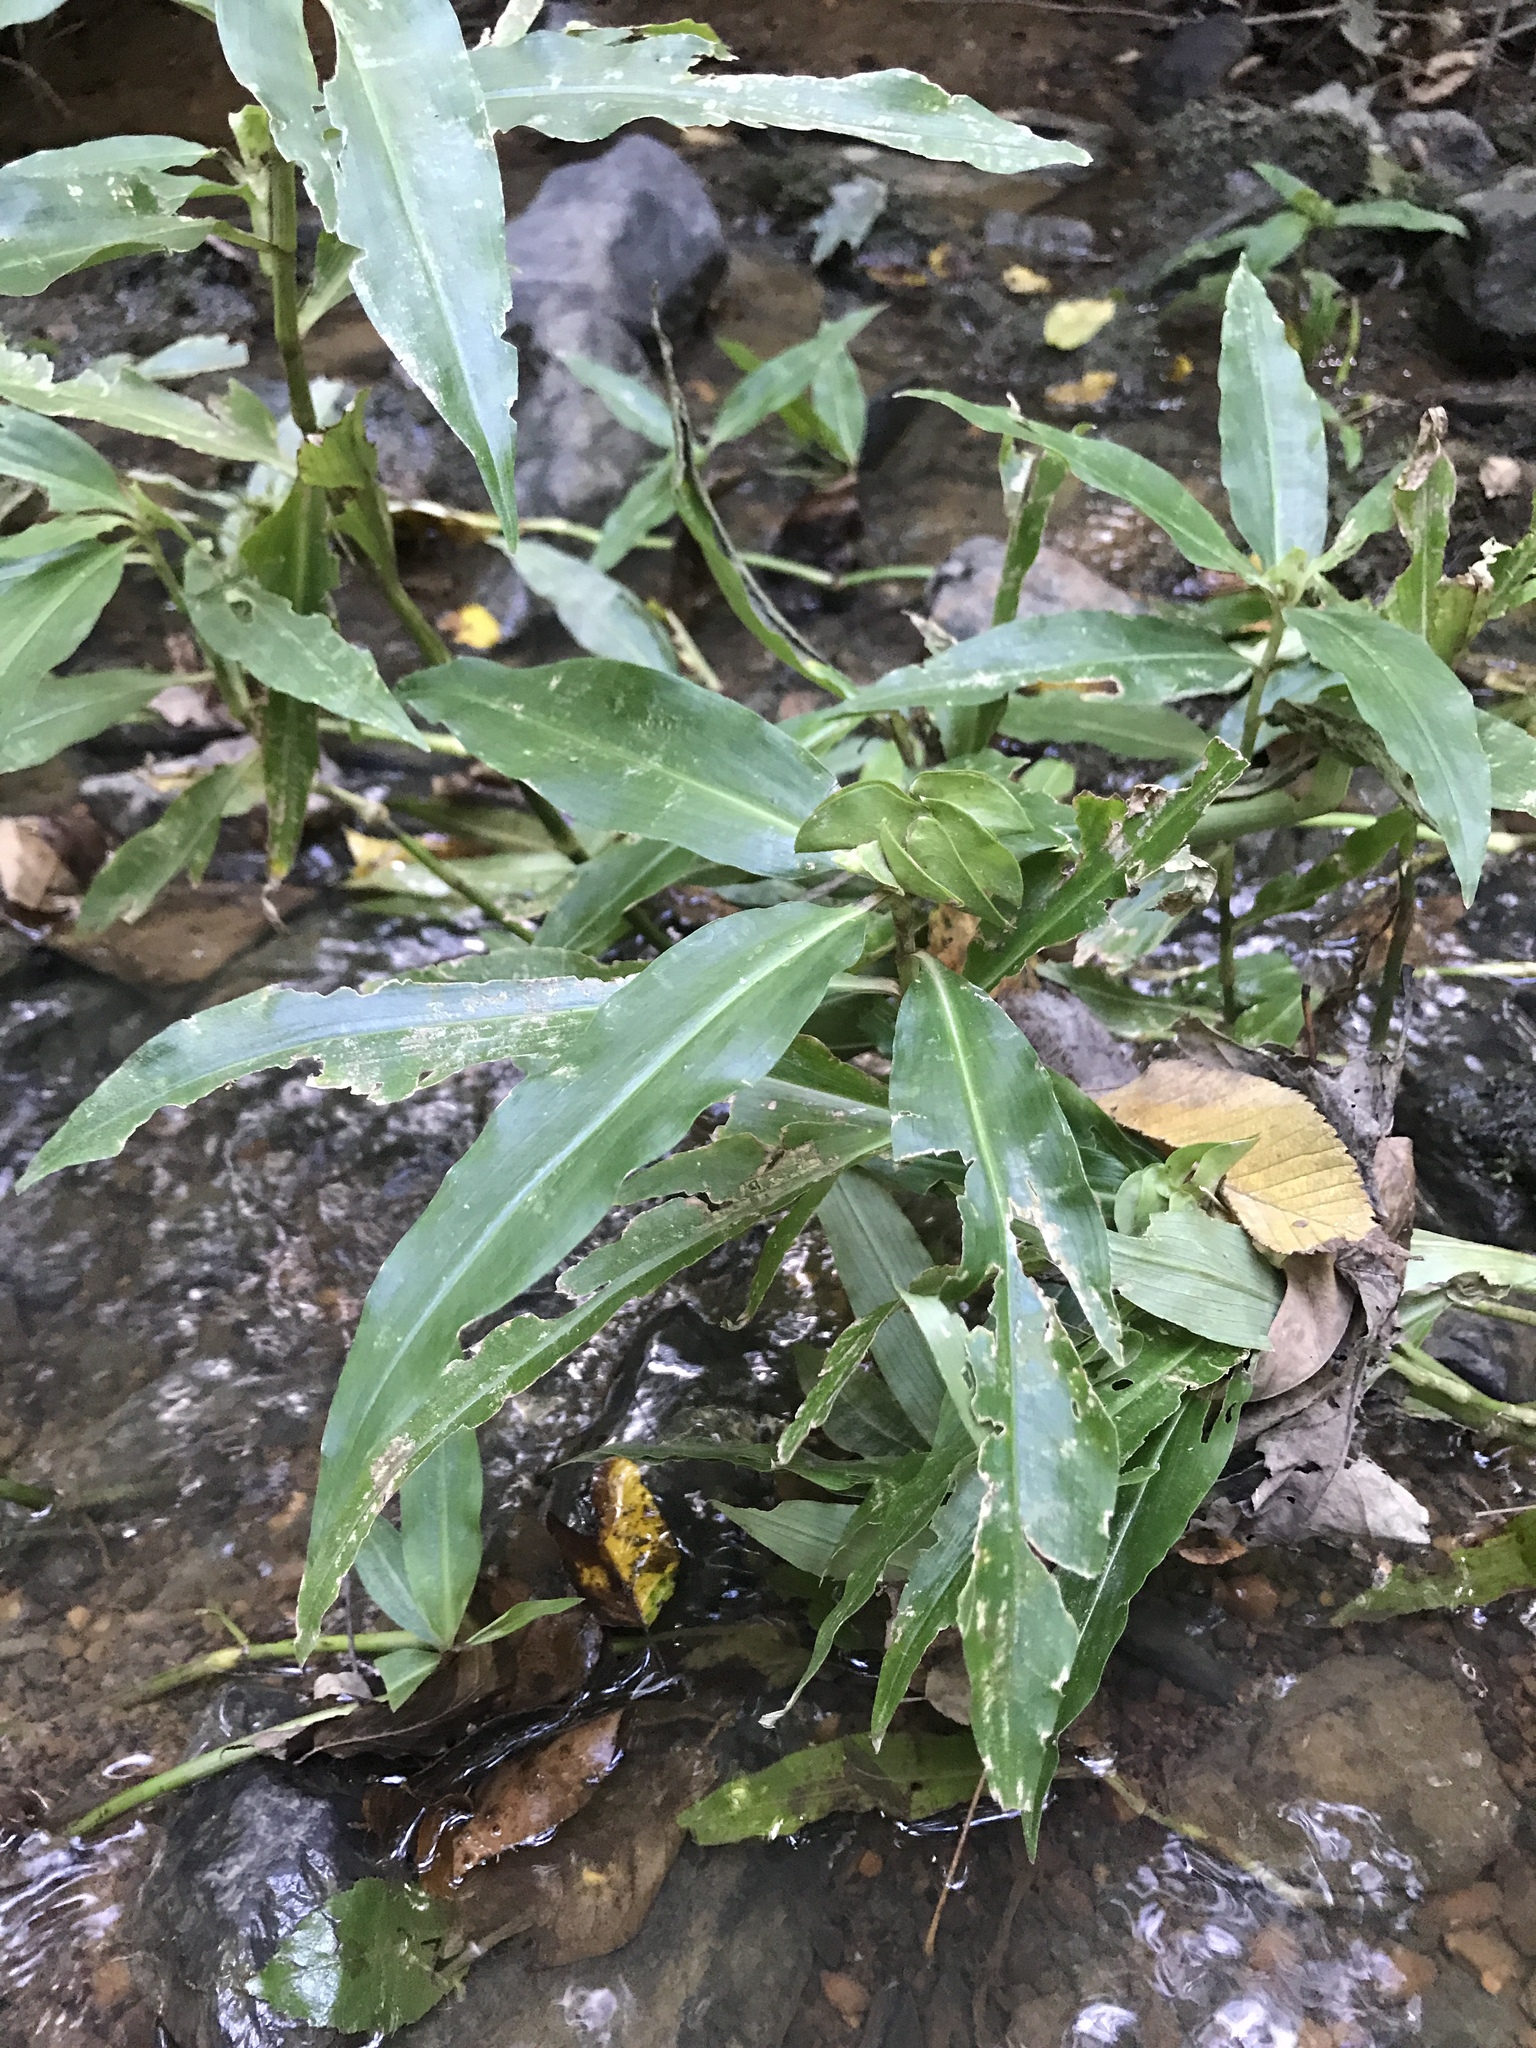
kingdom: Plantae
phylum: Tracheophyta
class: Liliopsida
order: Commelinales
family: Commelinaceae
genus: Commelina
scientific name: Commelina virginica
